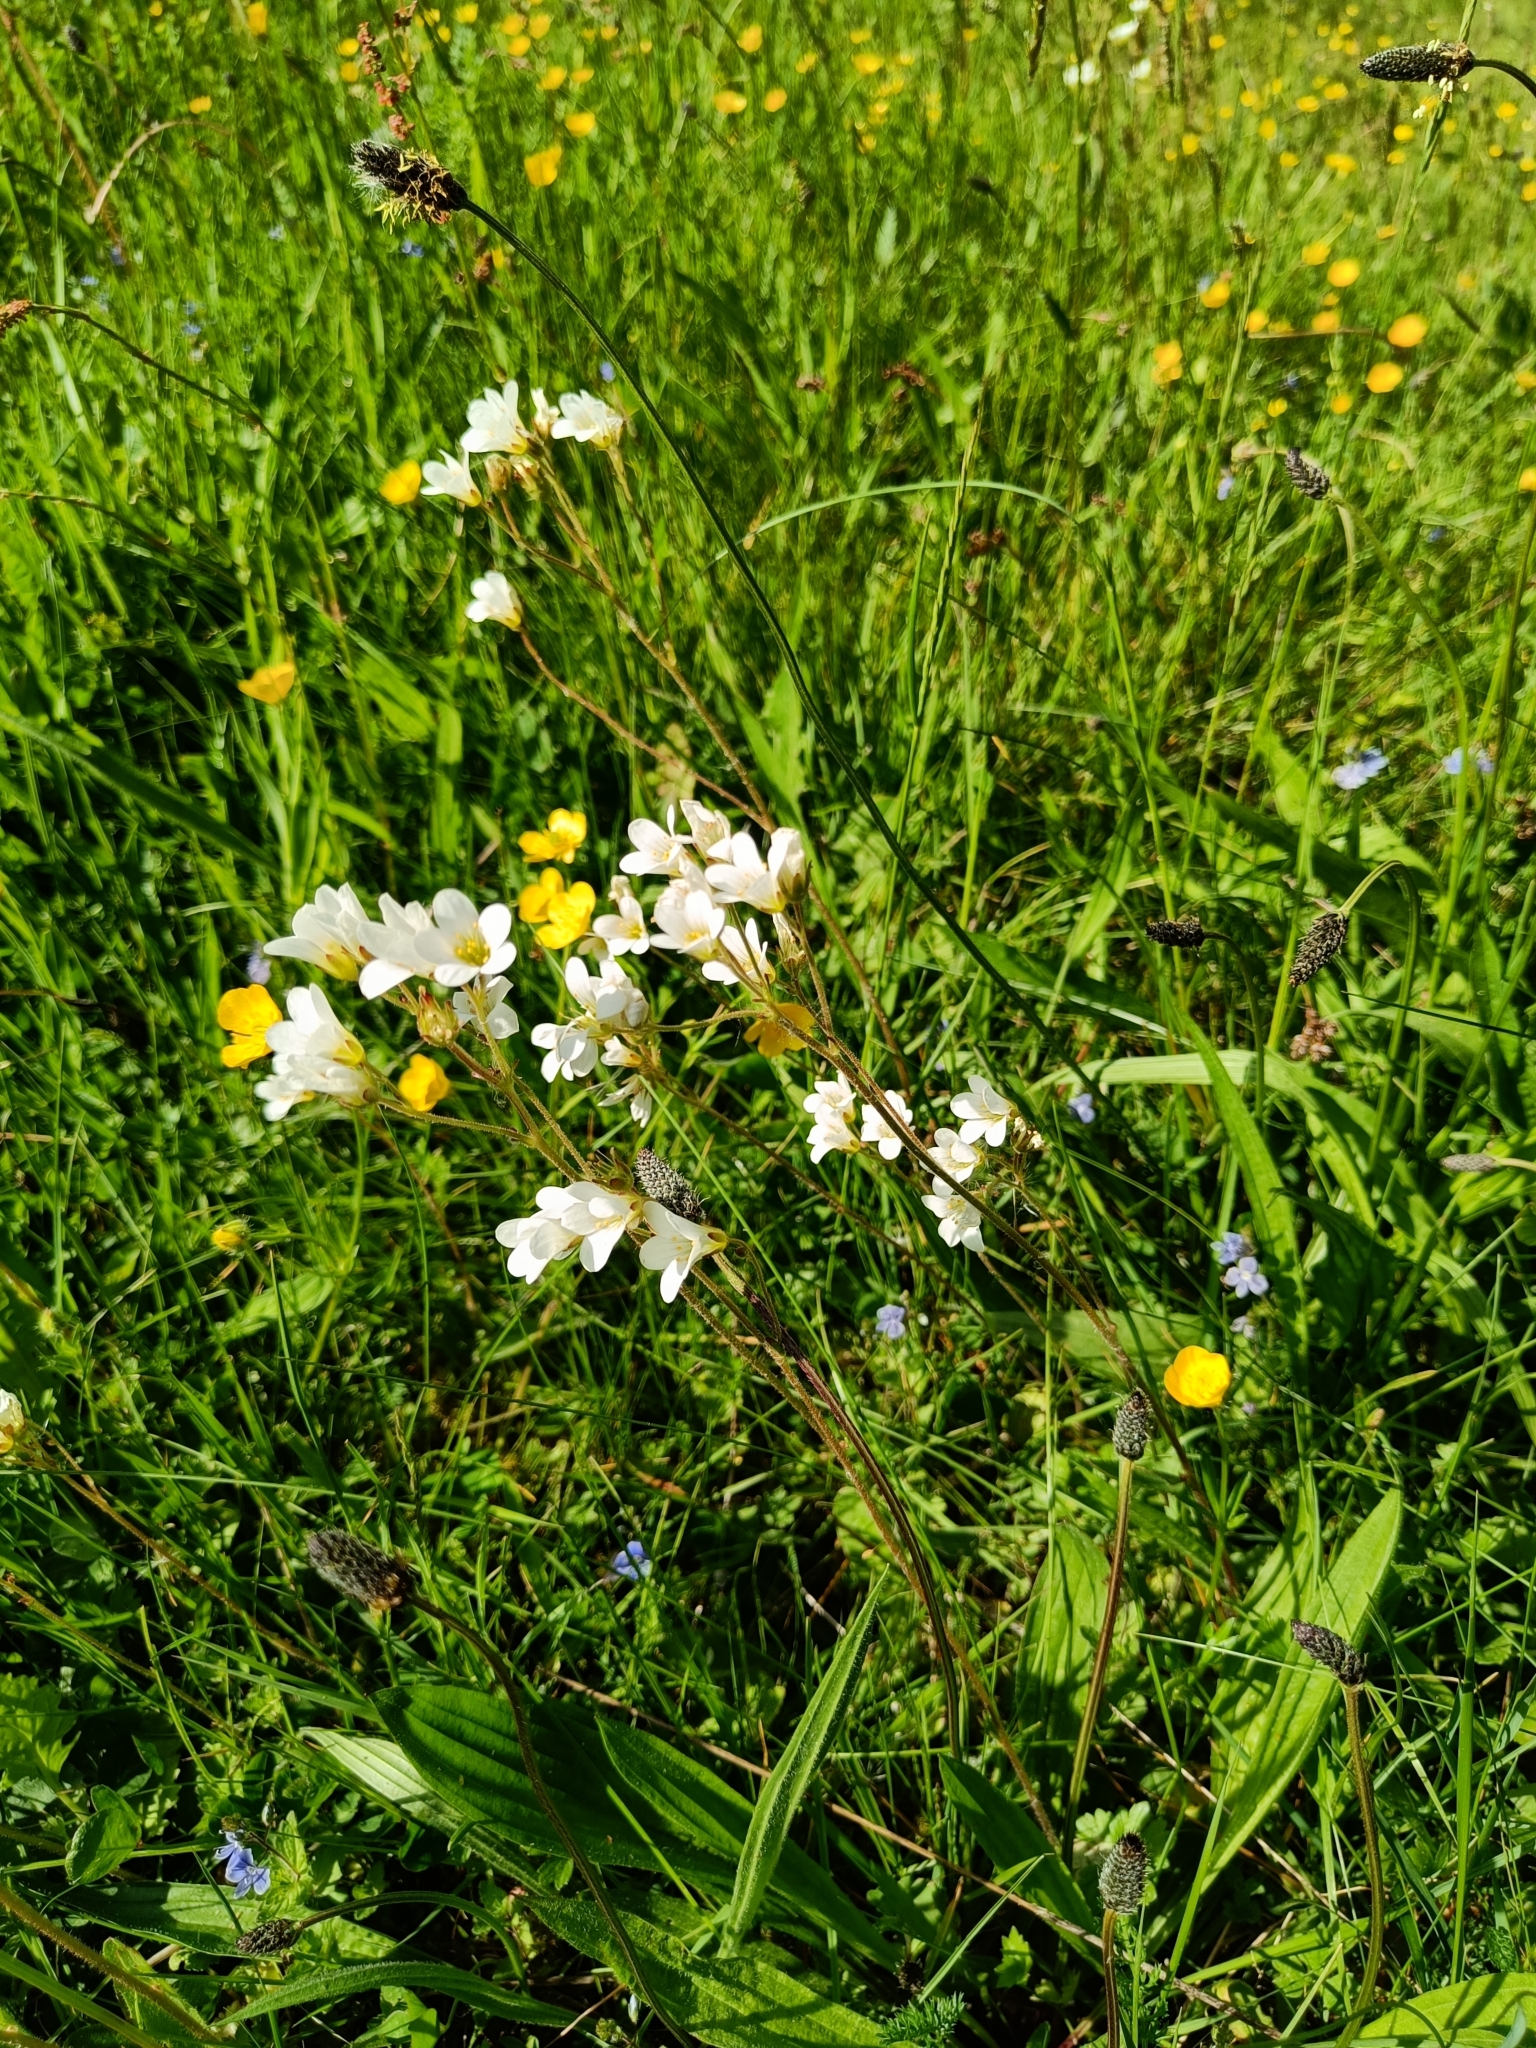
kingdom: Plantae
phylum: Tracheophyta
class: Magnoliopsida
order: Saxifragales
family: Saxifragaceae
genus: Saxifraga
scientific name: Saxifraga granulata
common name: Meadow saxifrage
